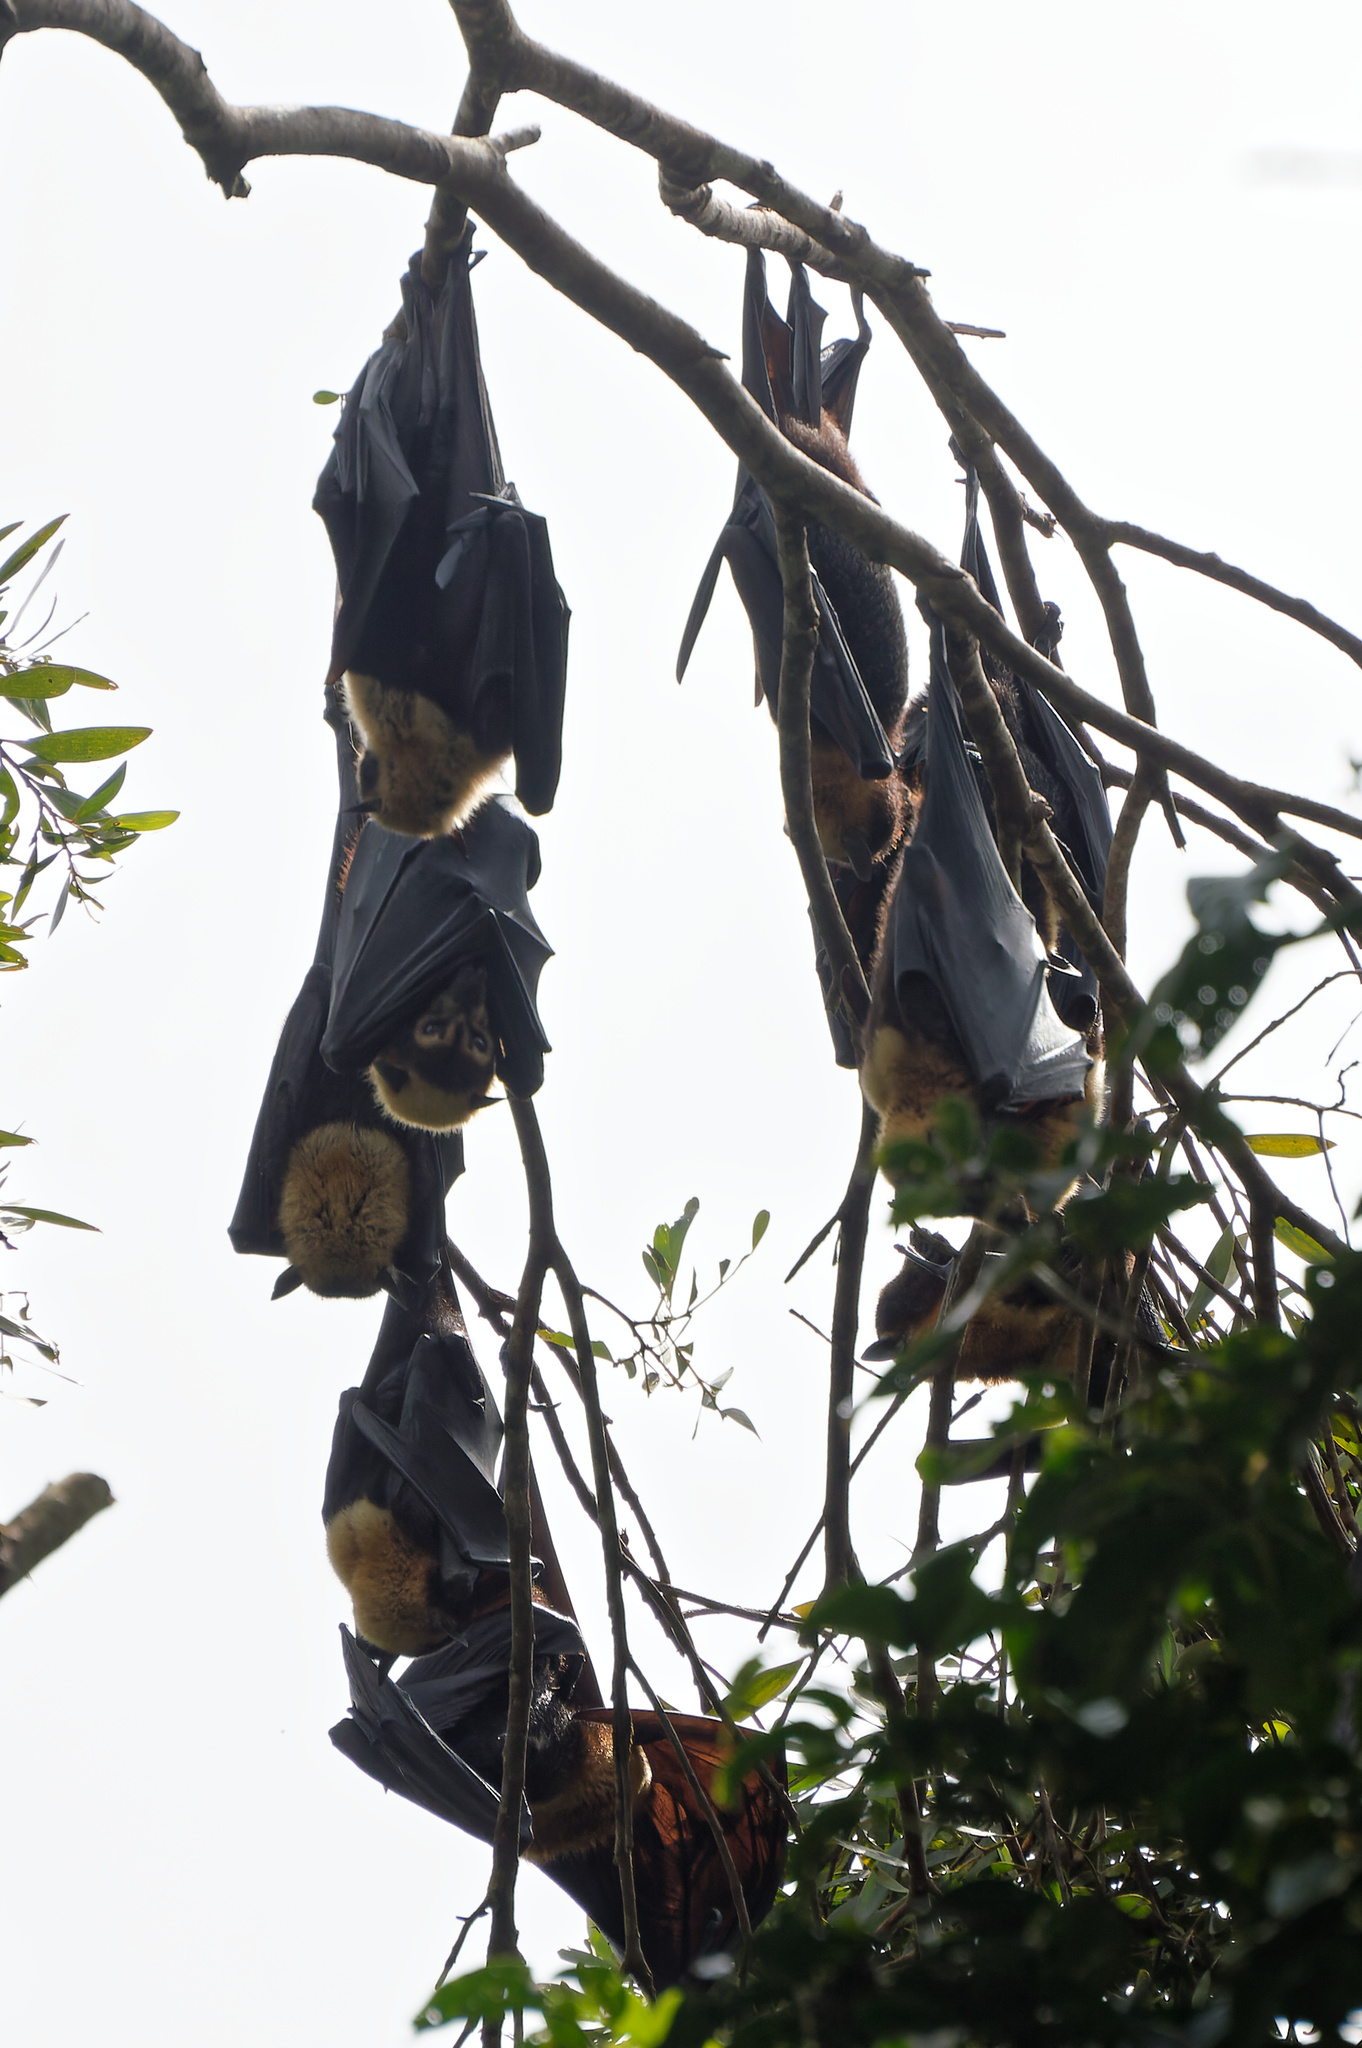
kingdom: Animalia
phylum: Chordata
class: Mammalia
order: Chiroptera
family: Pteropodidae
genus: Pteropus
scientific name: Pteropus conspicillatus
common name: Spectacled flying fox
